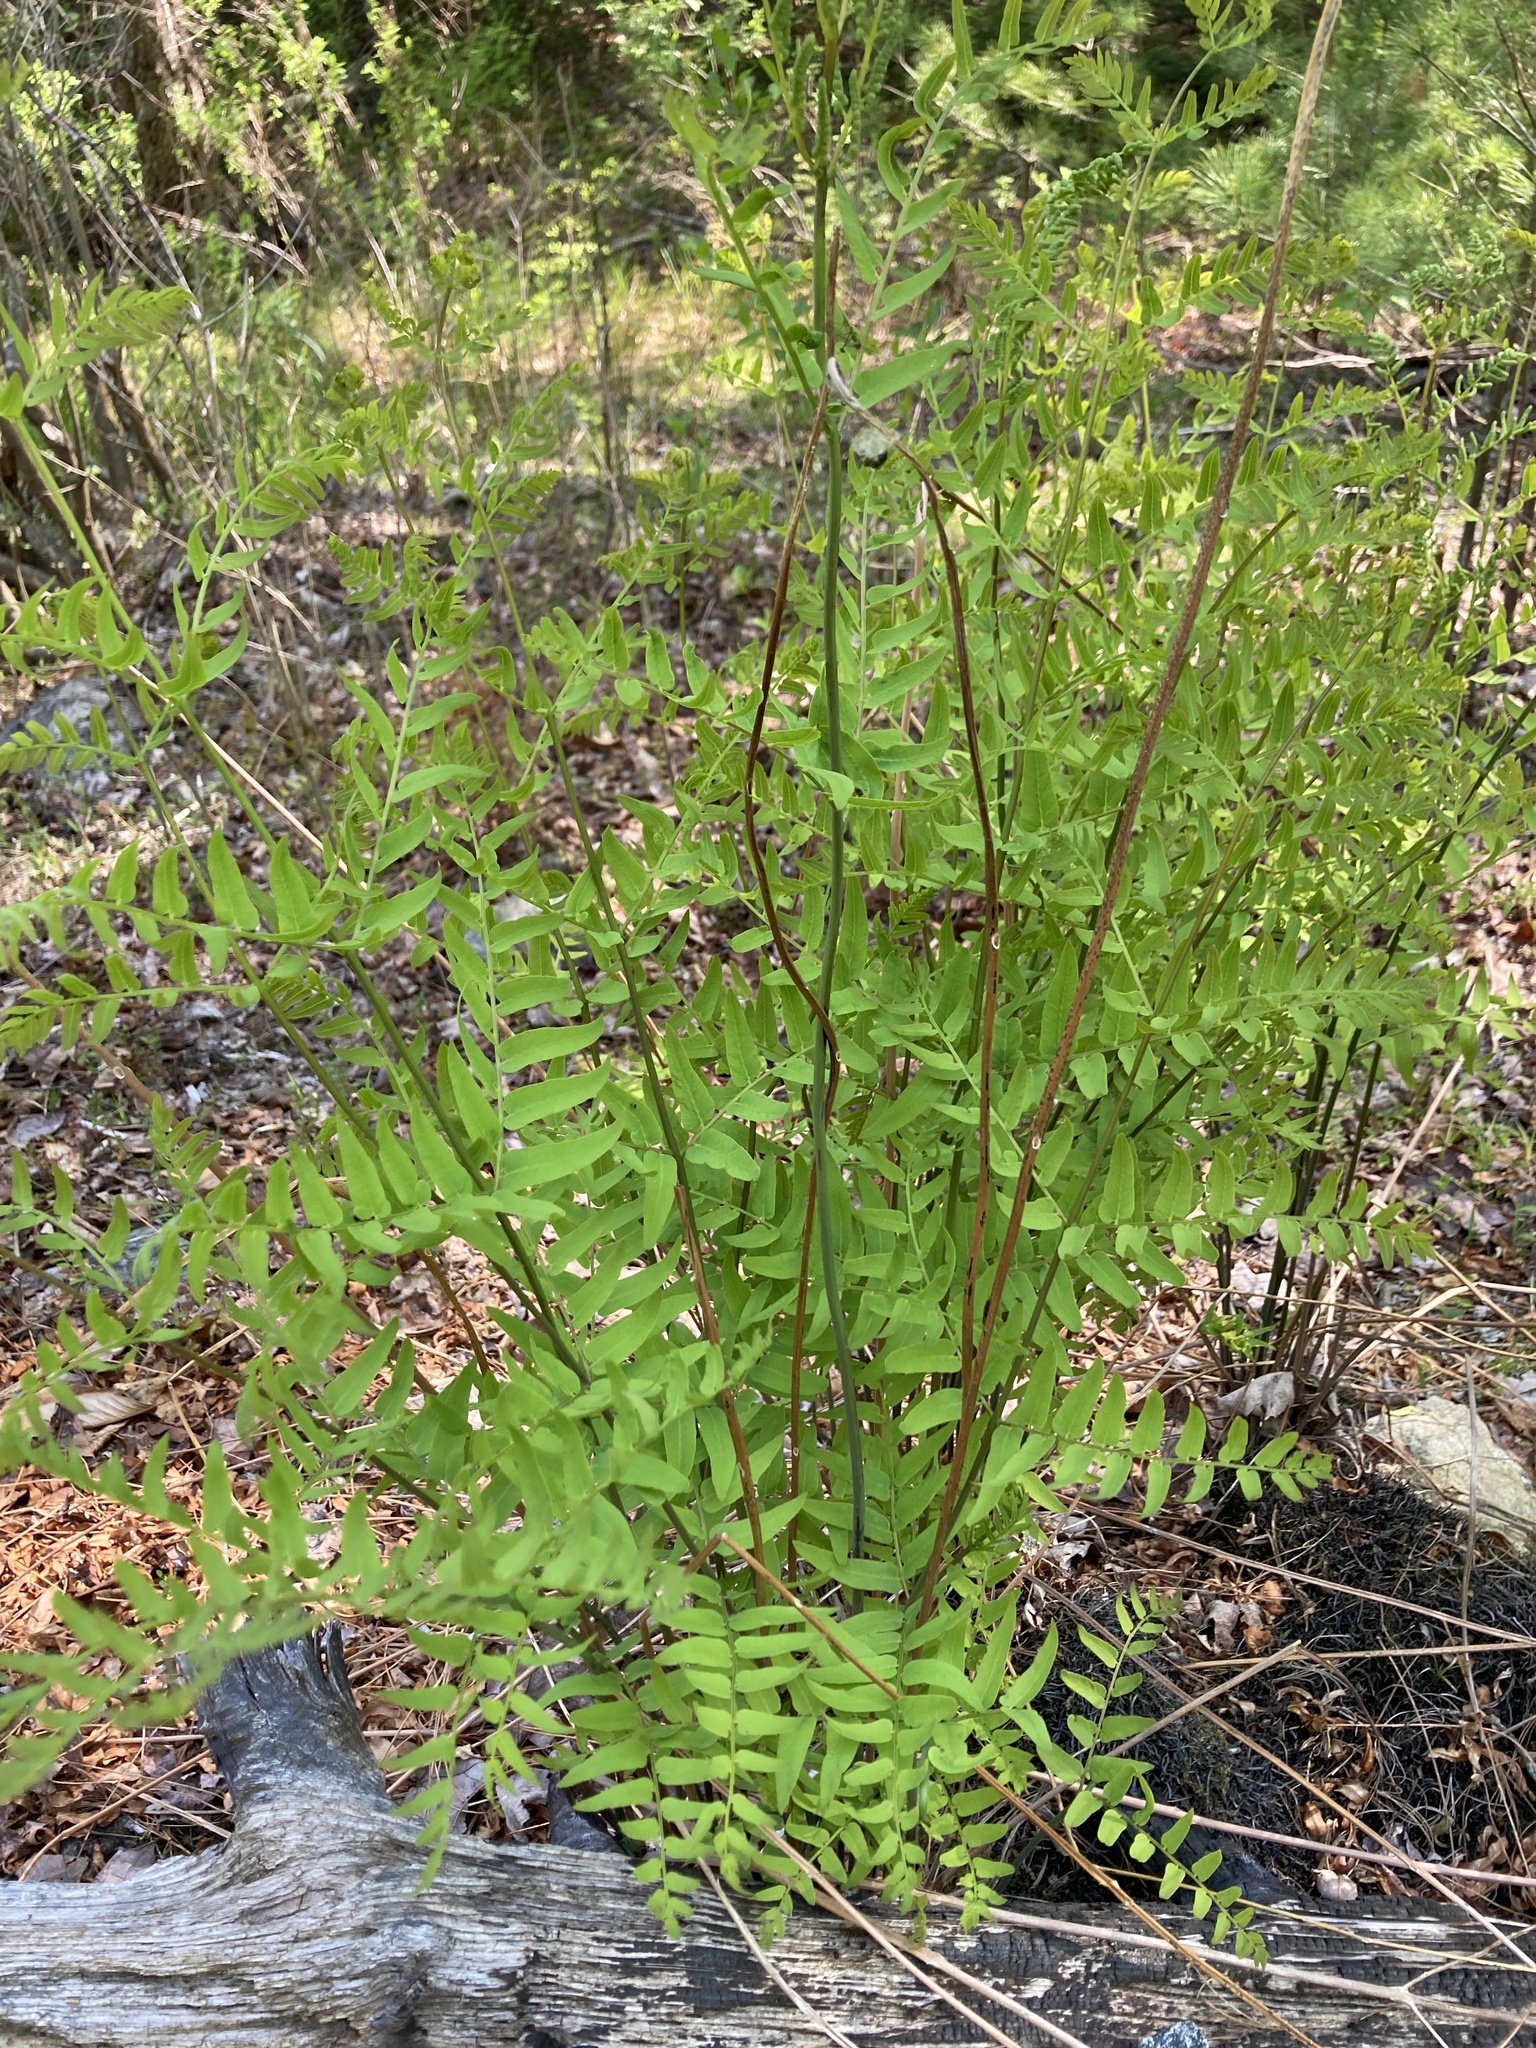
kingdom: Plantae
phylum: Tracheophyta
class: Polypodiopsida
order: Osmundales
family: Osmundaceae
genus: Osmunda
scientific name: Osmunda spectabilis
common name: American royal fern
